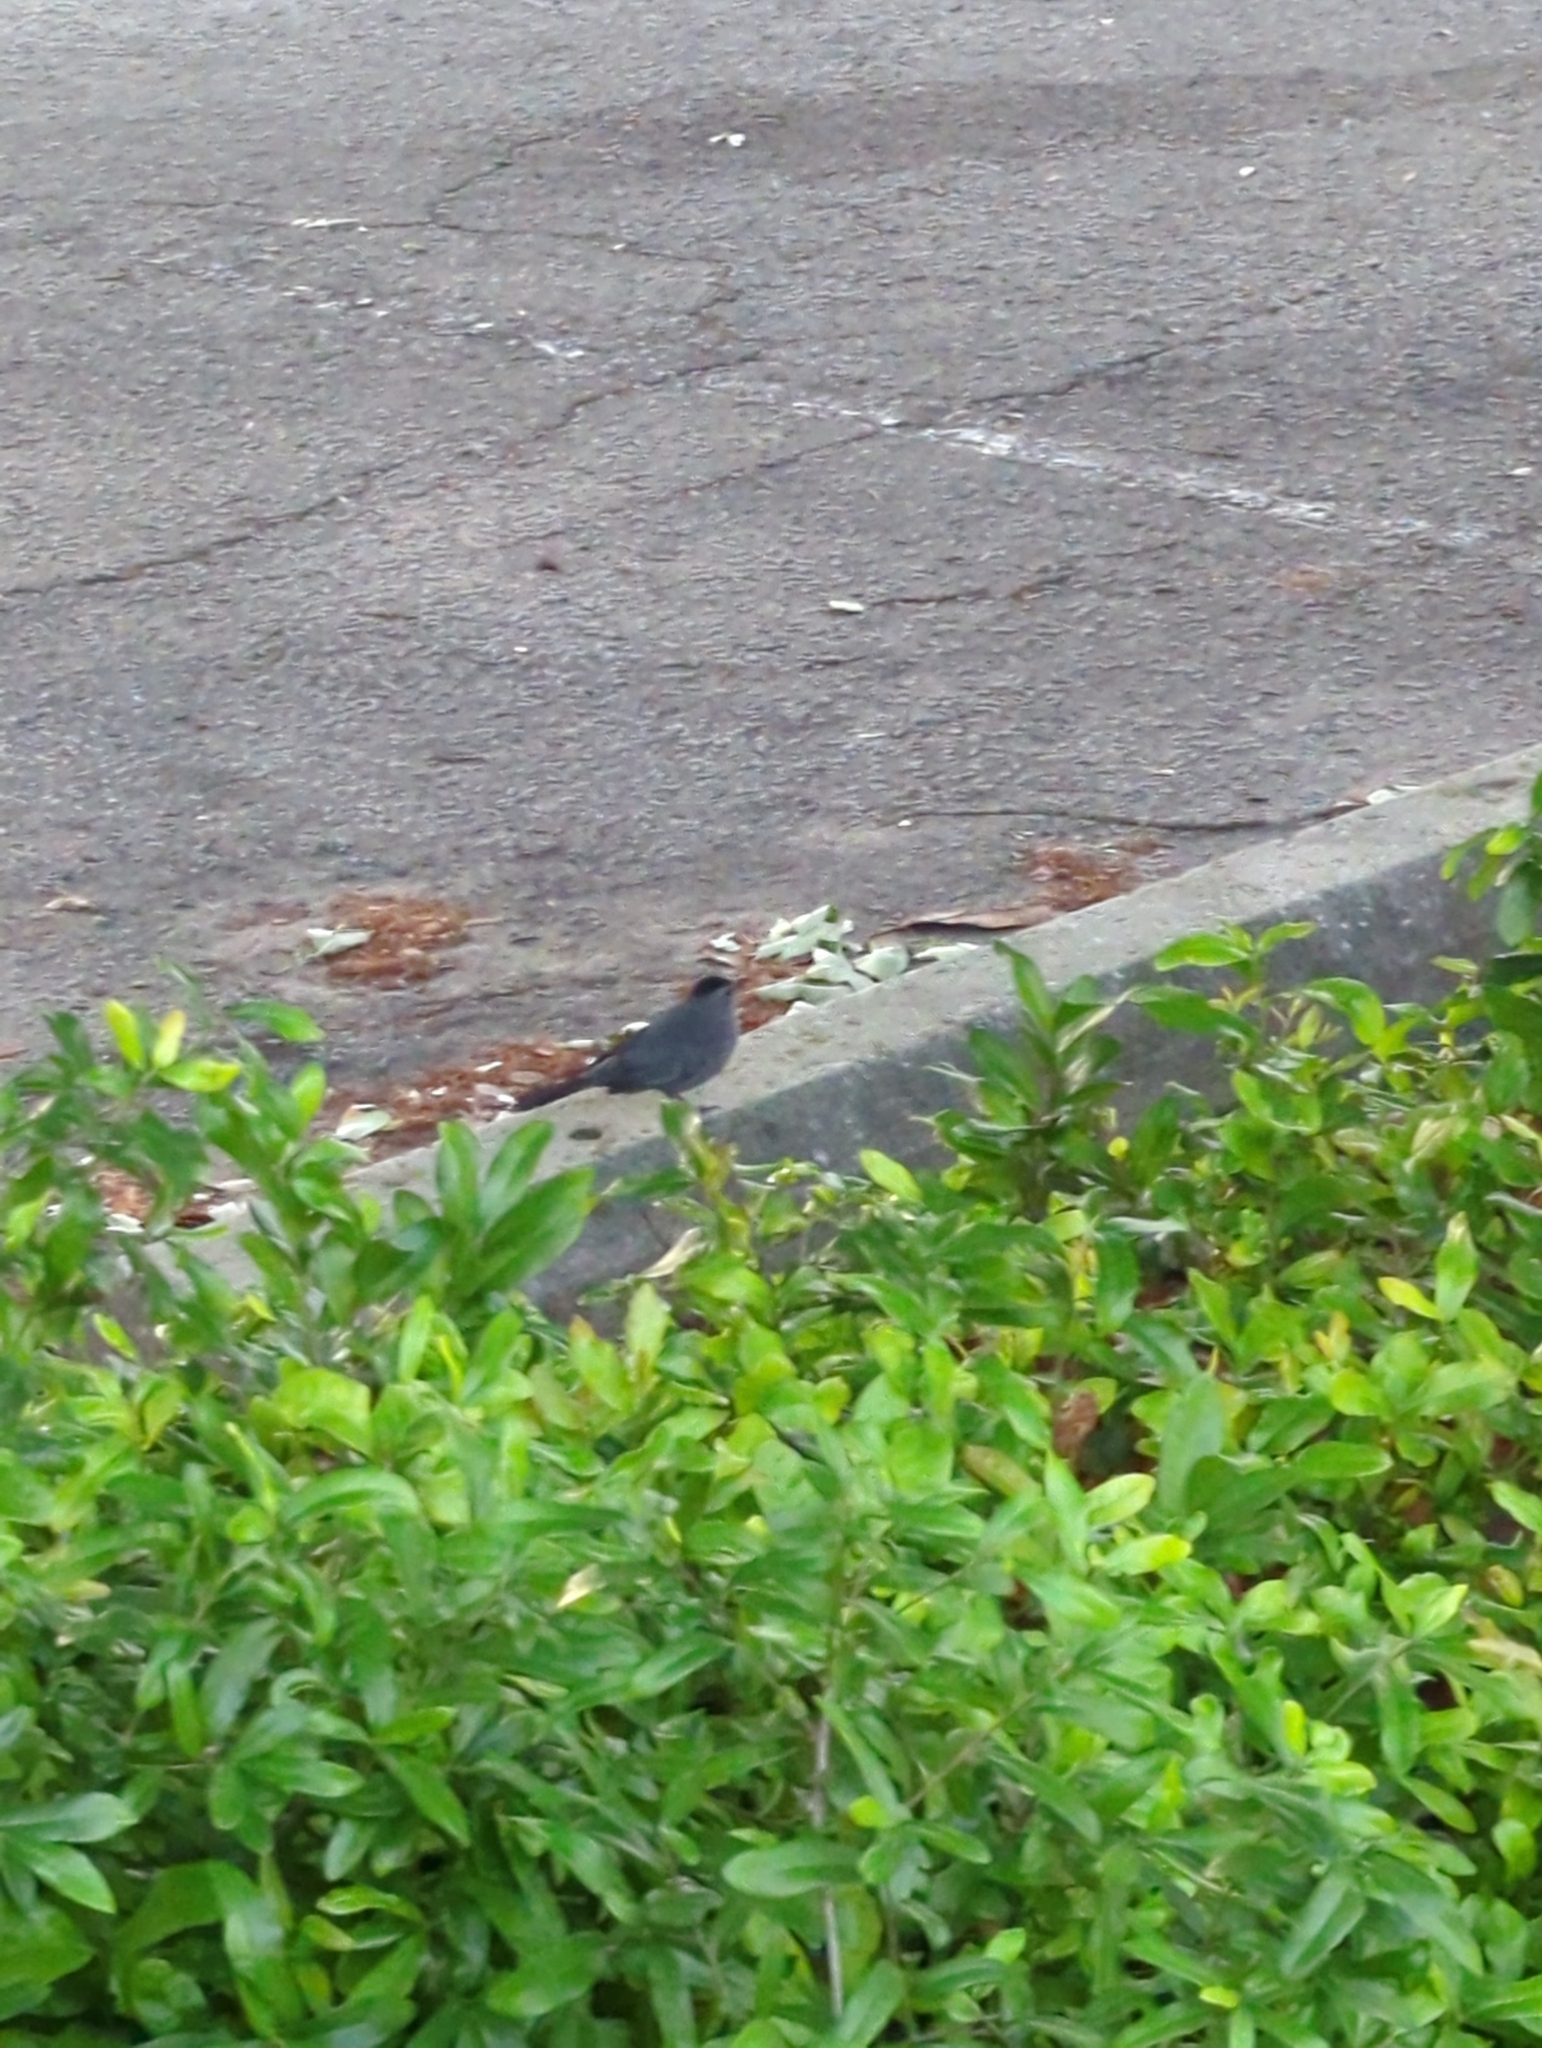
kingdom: Animalia
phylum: Chordata
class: Aves
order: Passeriformes
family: Mimidae
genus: Dumetella
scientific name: Dumetella carolinensis
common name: Gray catbird
